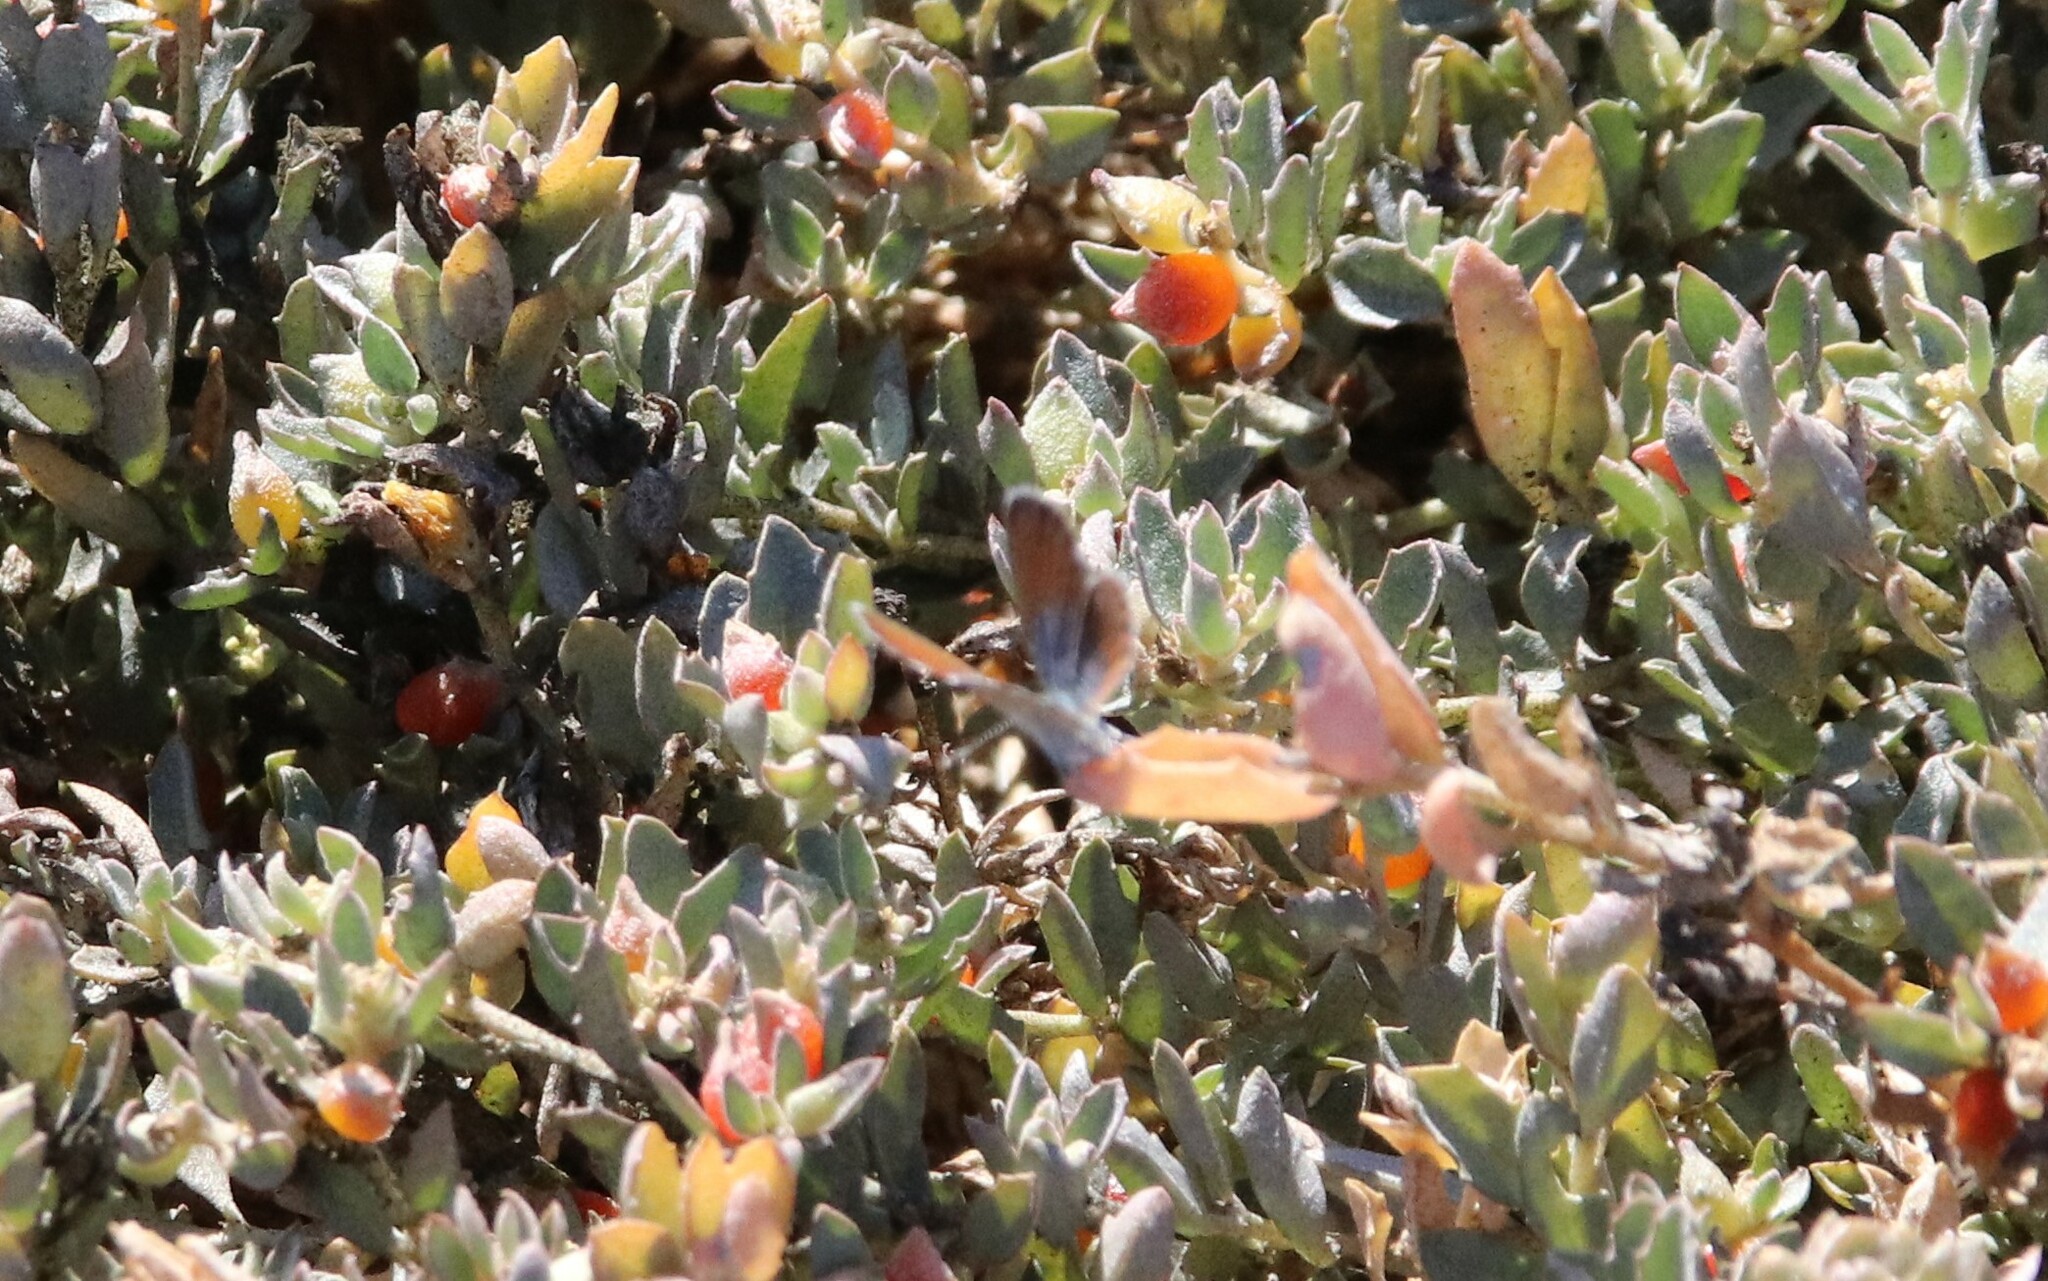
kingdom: Animalia
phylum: Arthropoda
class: Insecta
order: Lepidoptera
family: Lycaenidae
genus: Brephidium
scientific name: Brephidium exilis
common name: Pygmy blue
